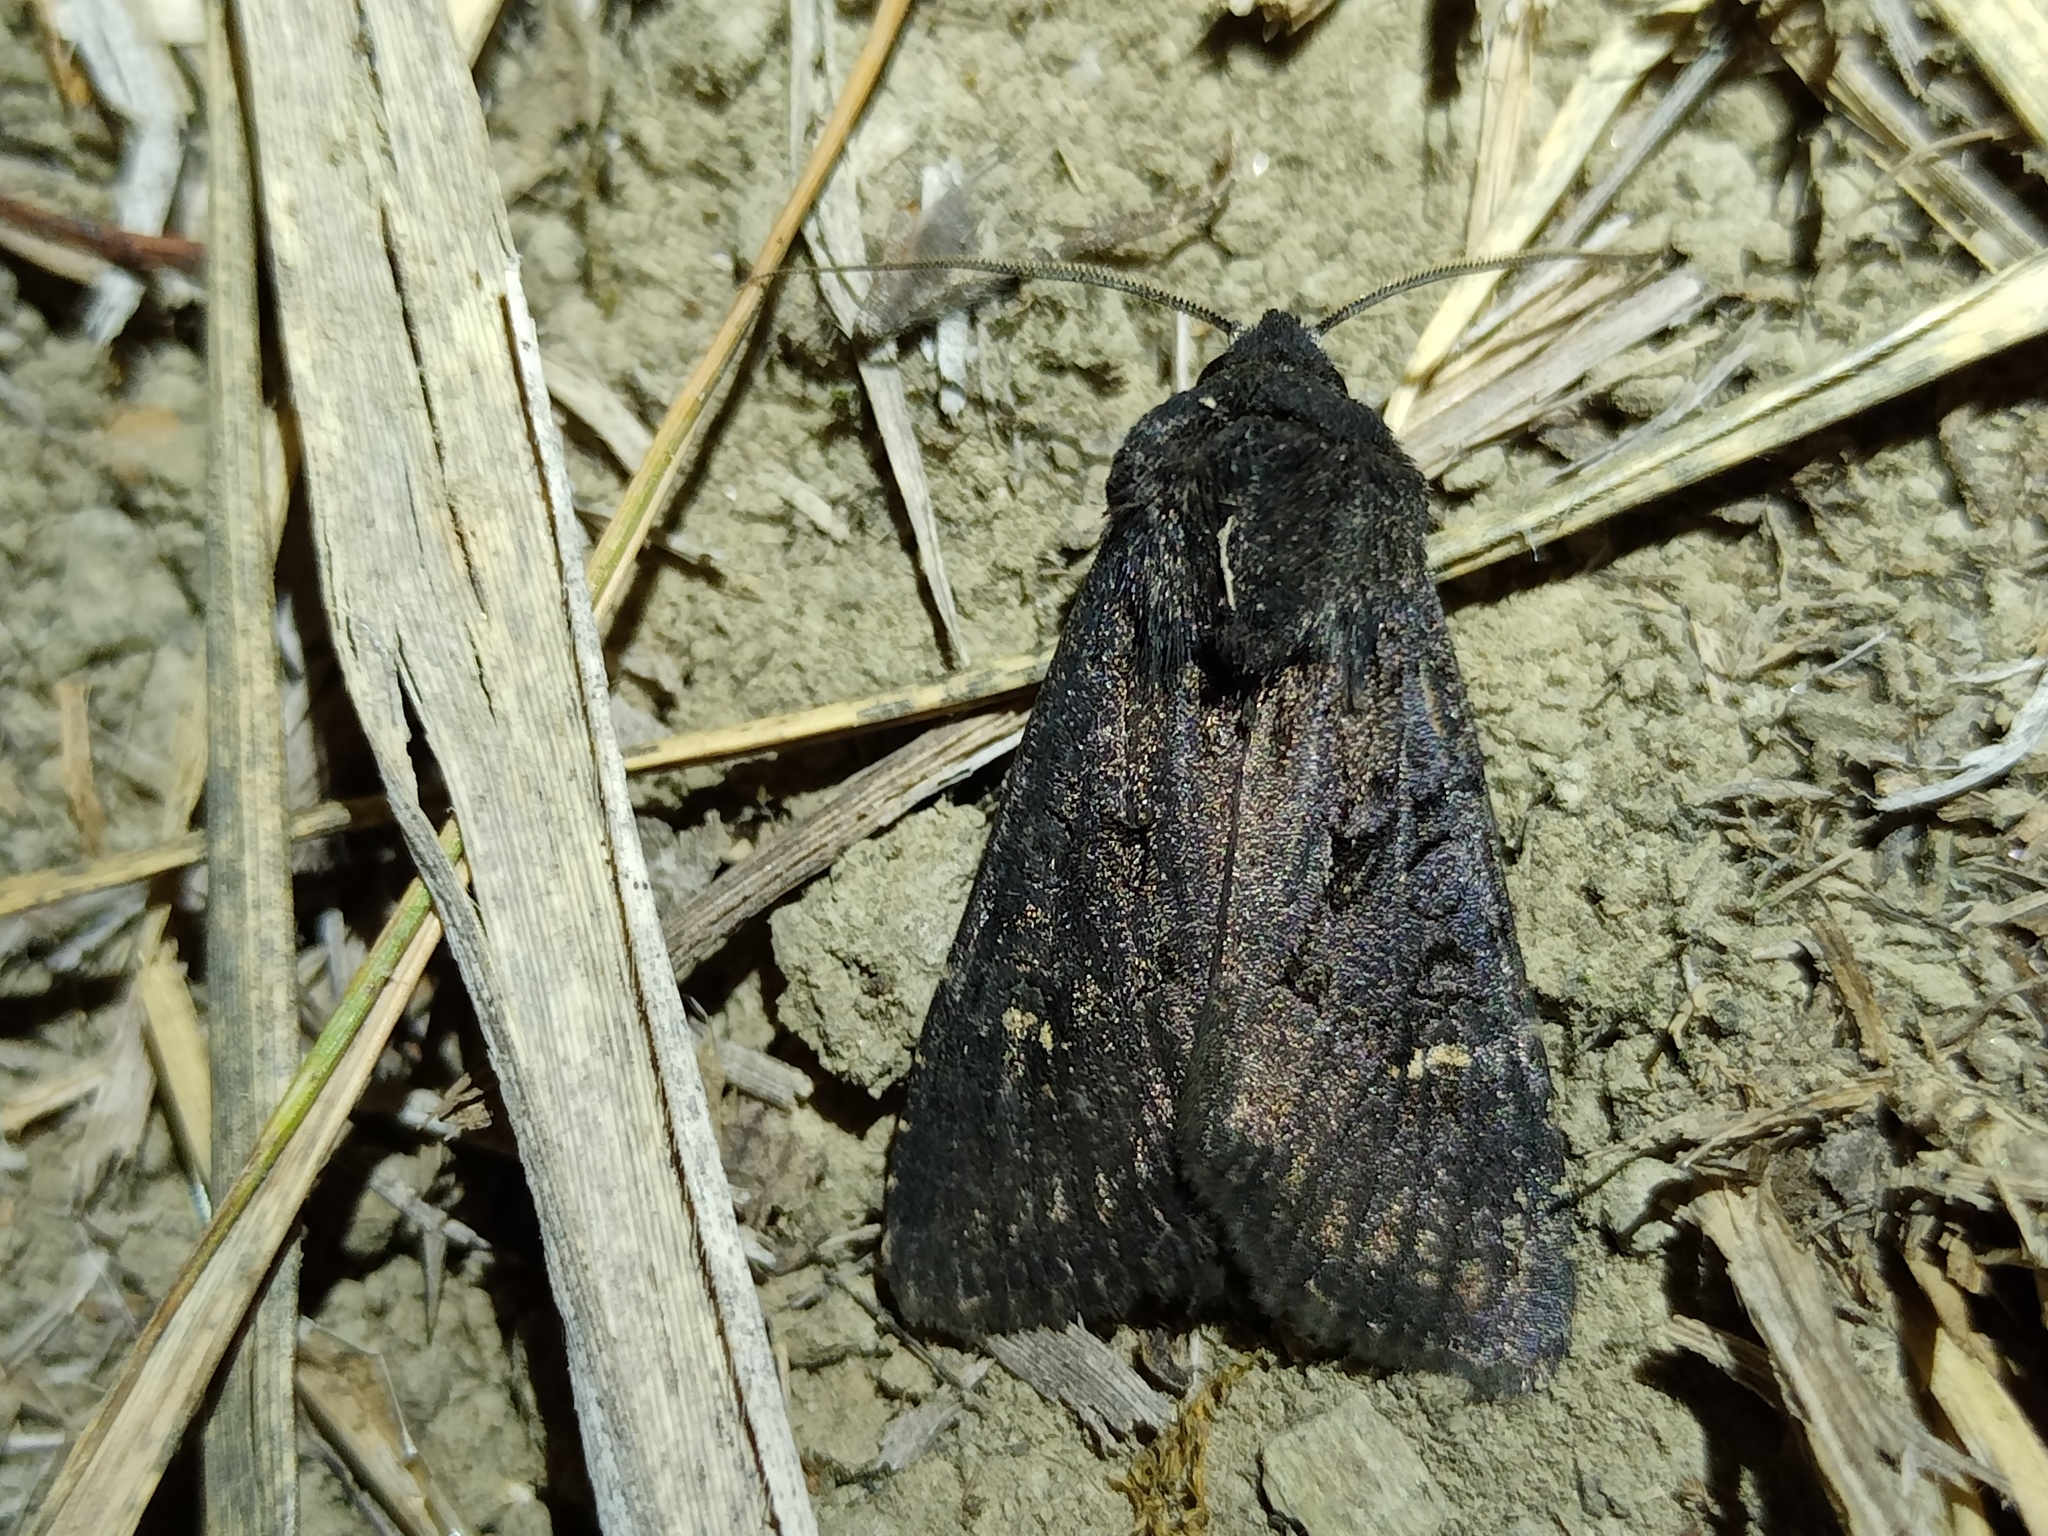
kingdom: Animalia
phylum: Arthropoda
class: Insecta
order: Lepidoptera
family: Noctuidae
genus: Aporophyla
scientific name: Aporophyla nigra
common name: Black rustic
